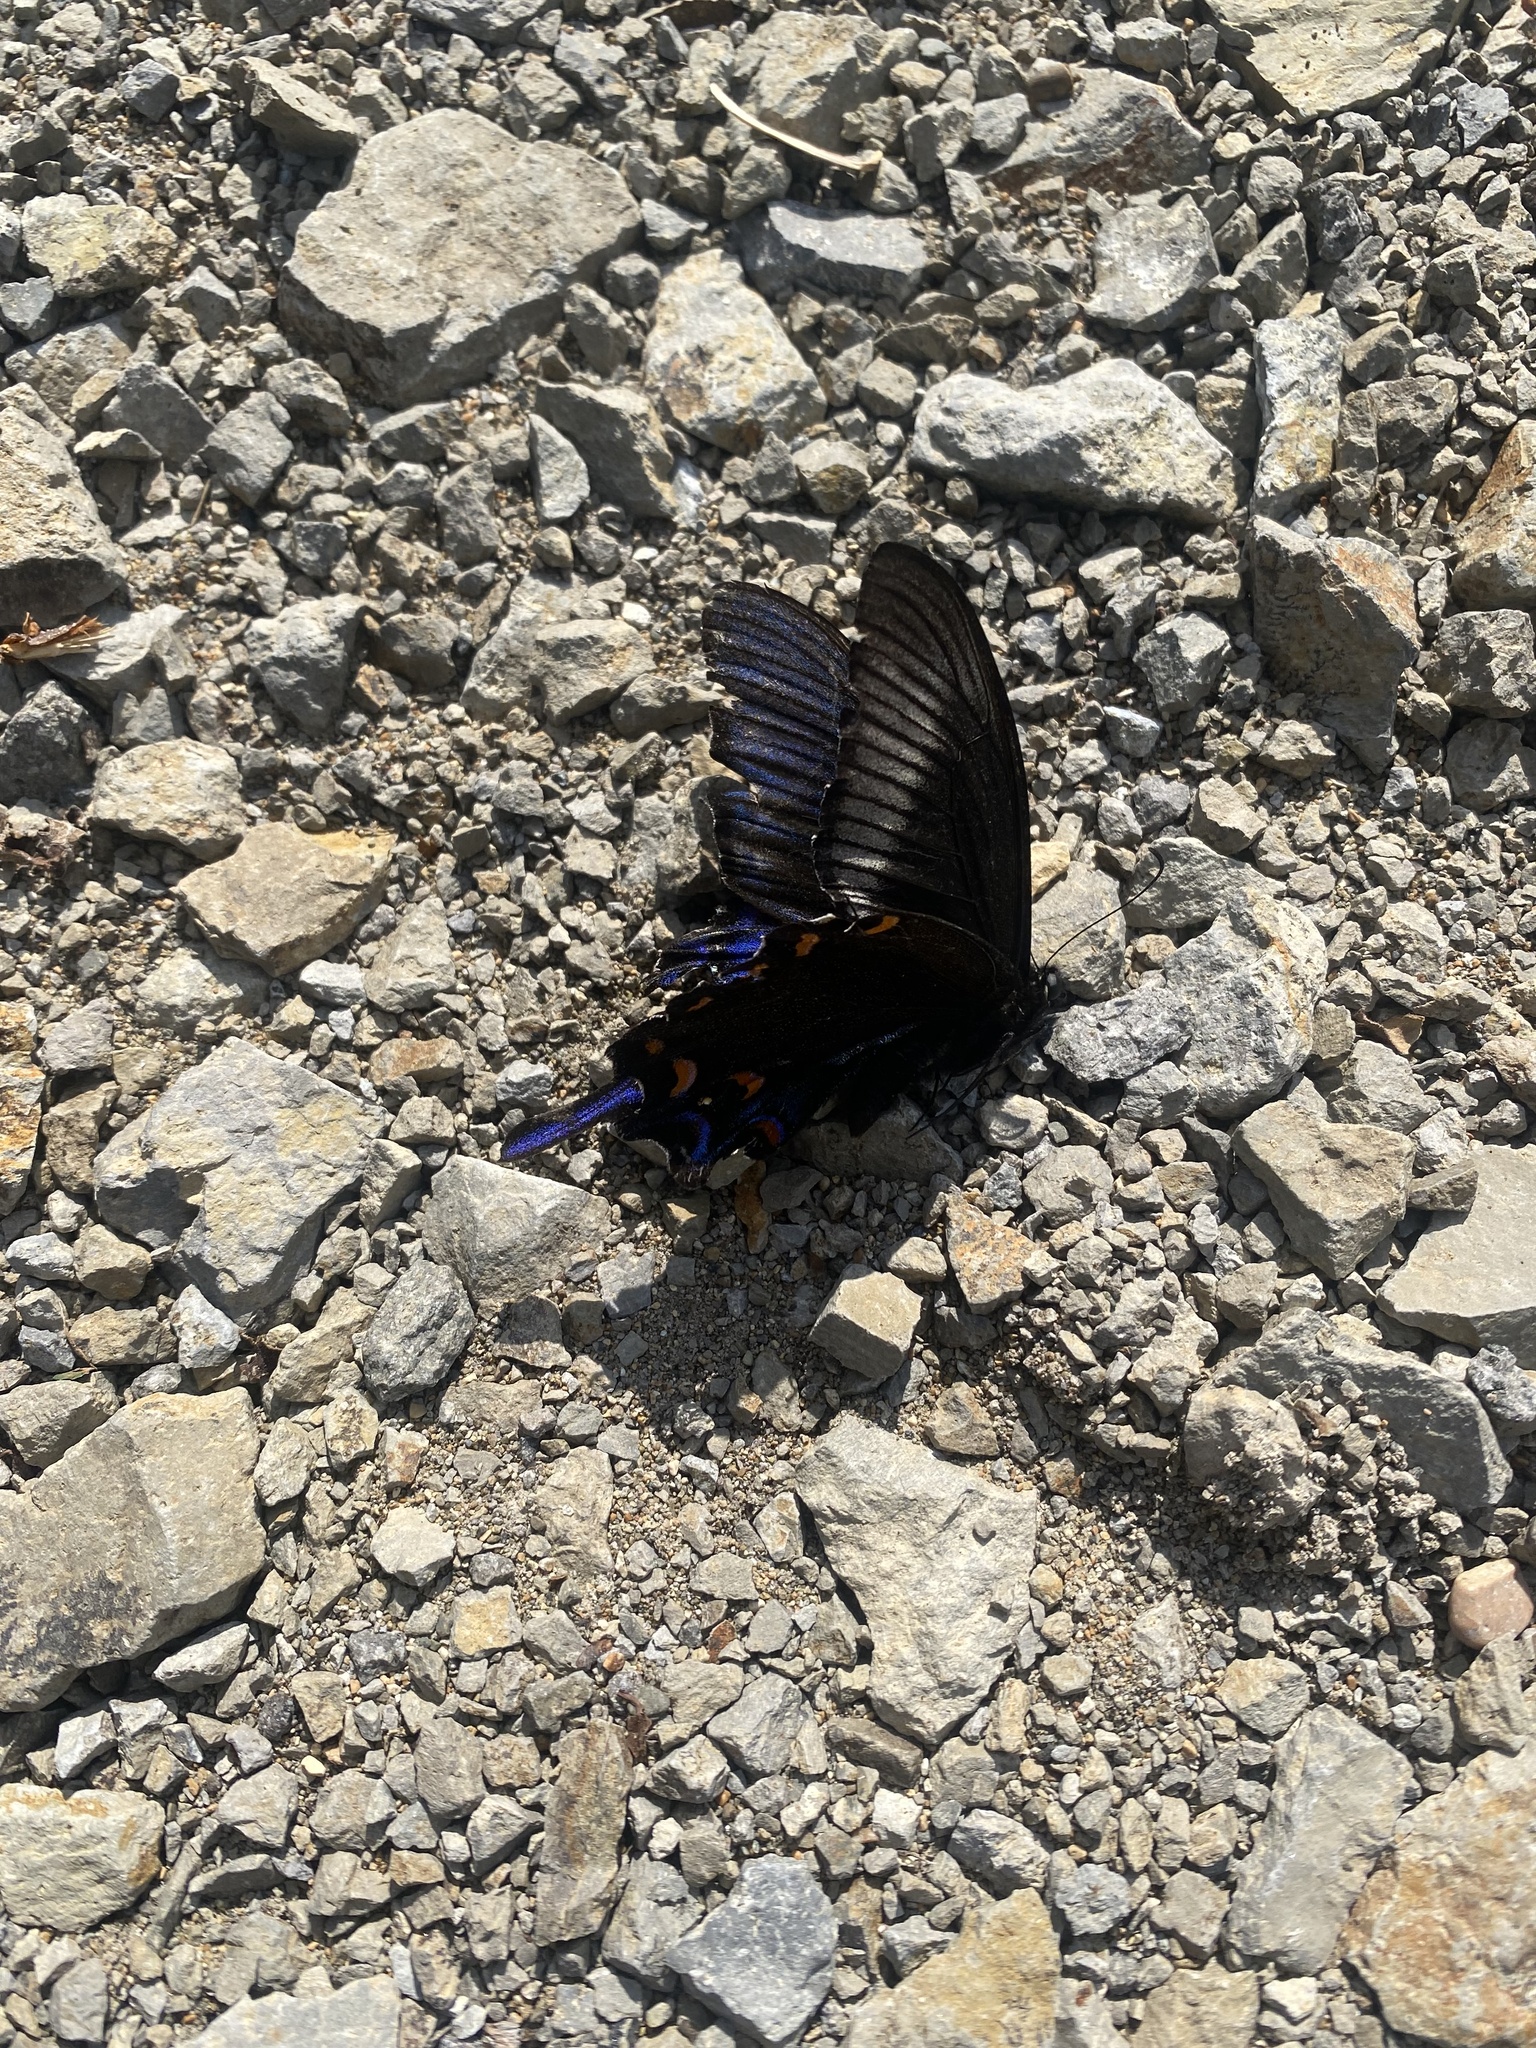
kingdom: Animalia
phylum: Arthropoda
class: Insecta
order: Lepidoptera
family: Papilionidae
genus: Papilio
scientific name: Papilio dehaanii
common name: Japanese peacock swallowtail
